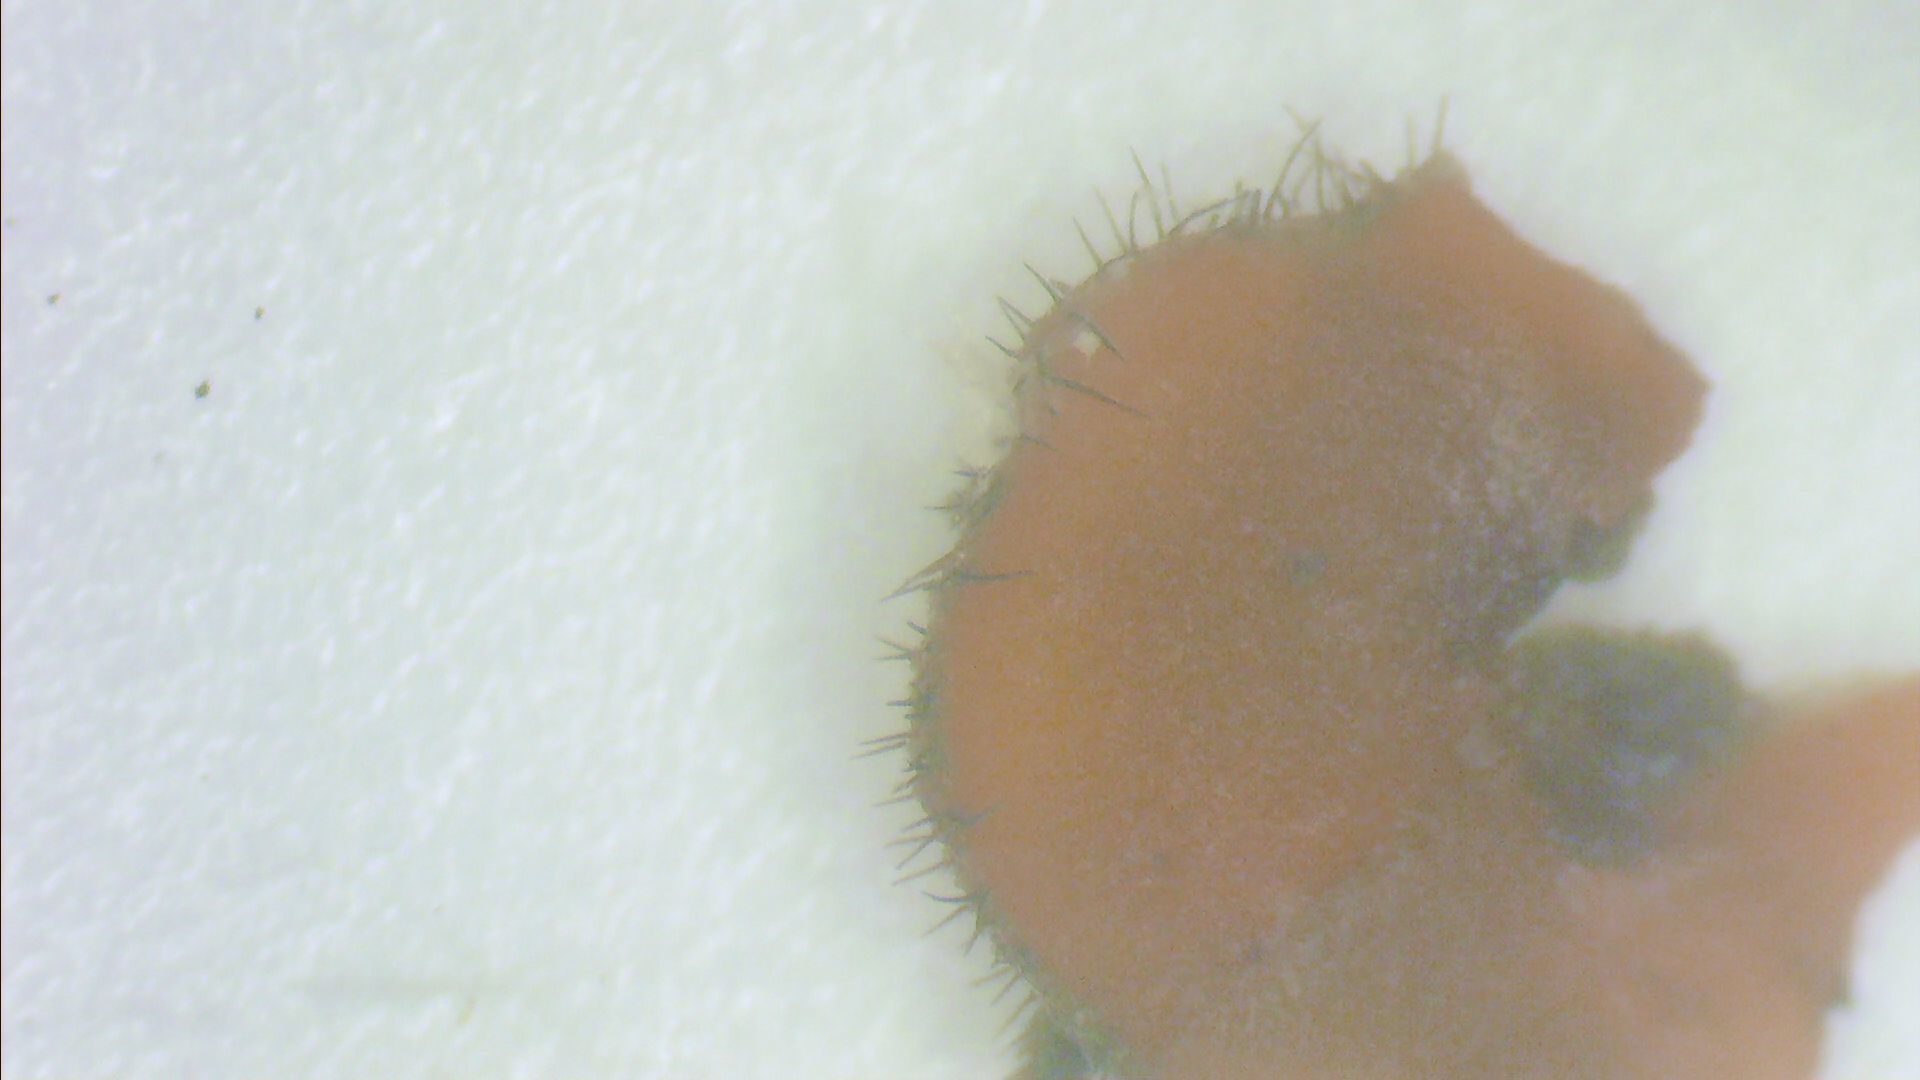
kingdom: Fungi
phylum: Ascomycota
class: Pezizomycetes
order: Pezizales
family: Pyronemataceae
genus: Scutellinia
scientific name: Scutellinia vitreola
